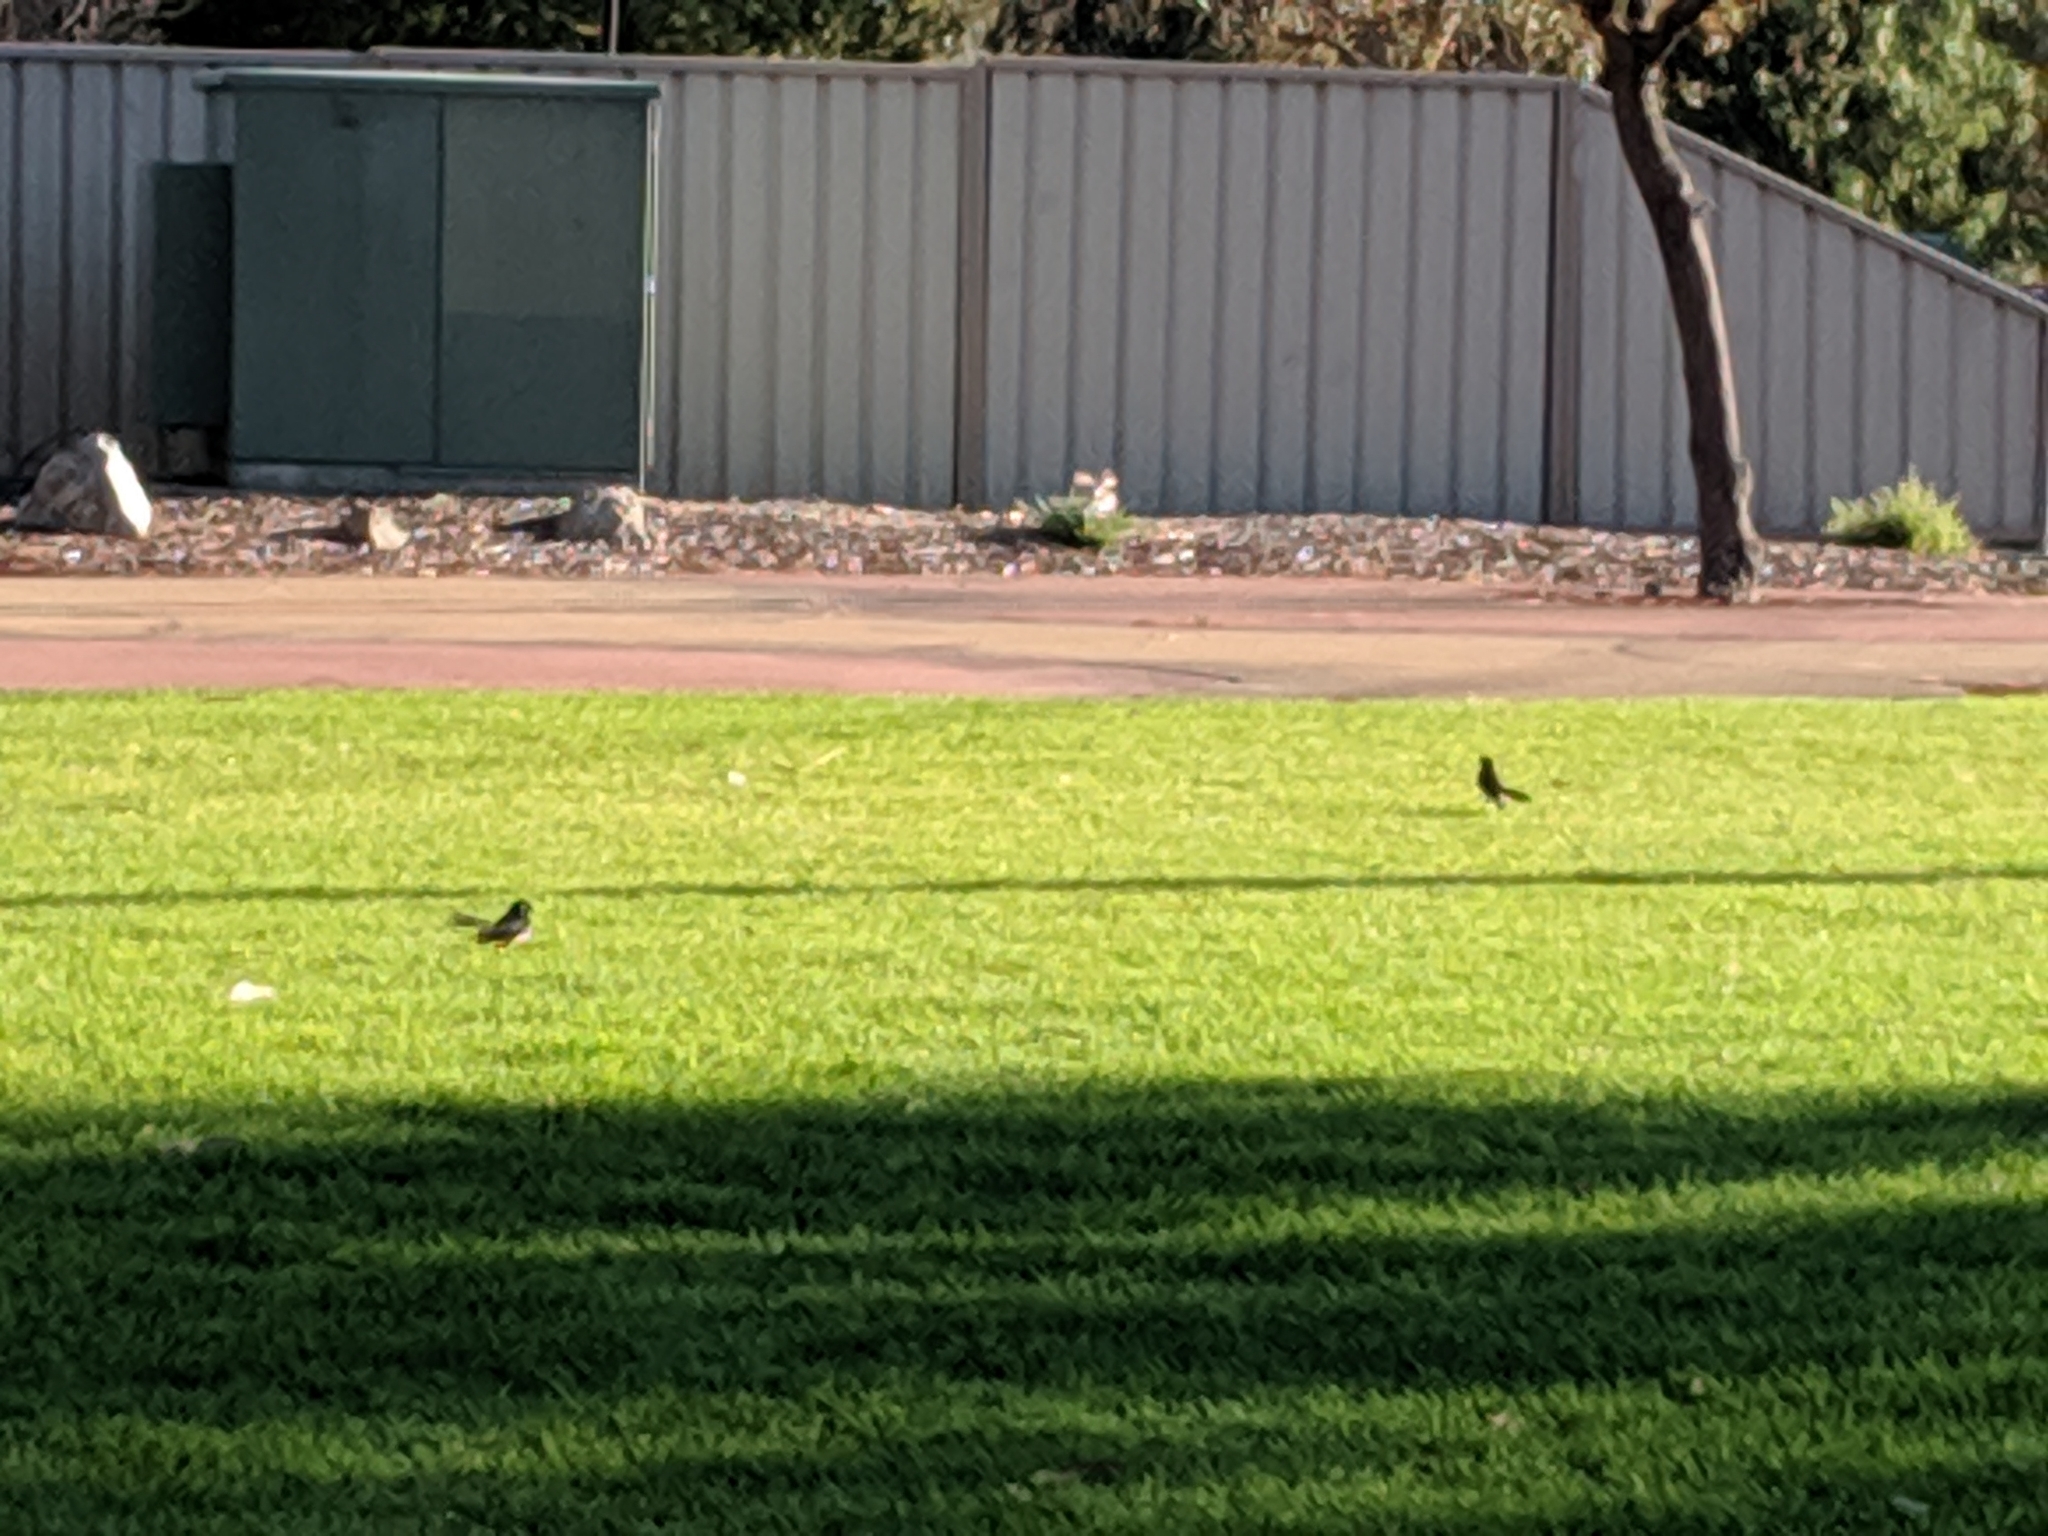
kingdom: Animalia
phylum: Chordata
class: Aves
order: Passeriformes
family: Rhipiduridae
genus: Rhipidura
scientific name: Rhipidura leucophrys
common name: Willie wagtail
